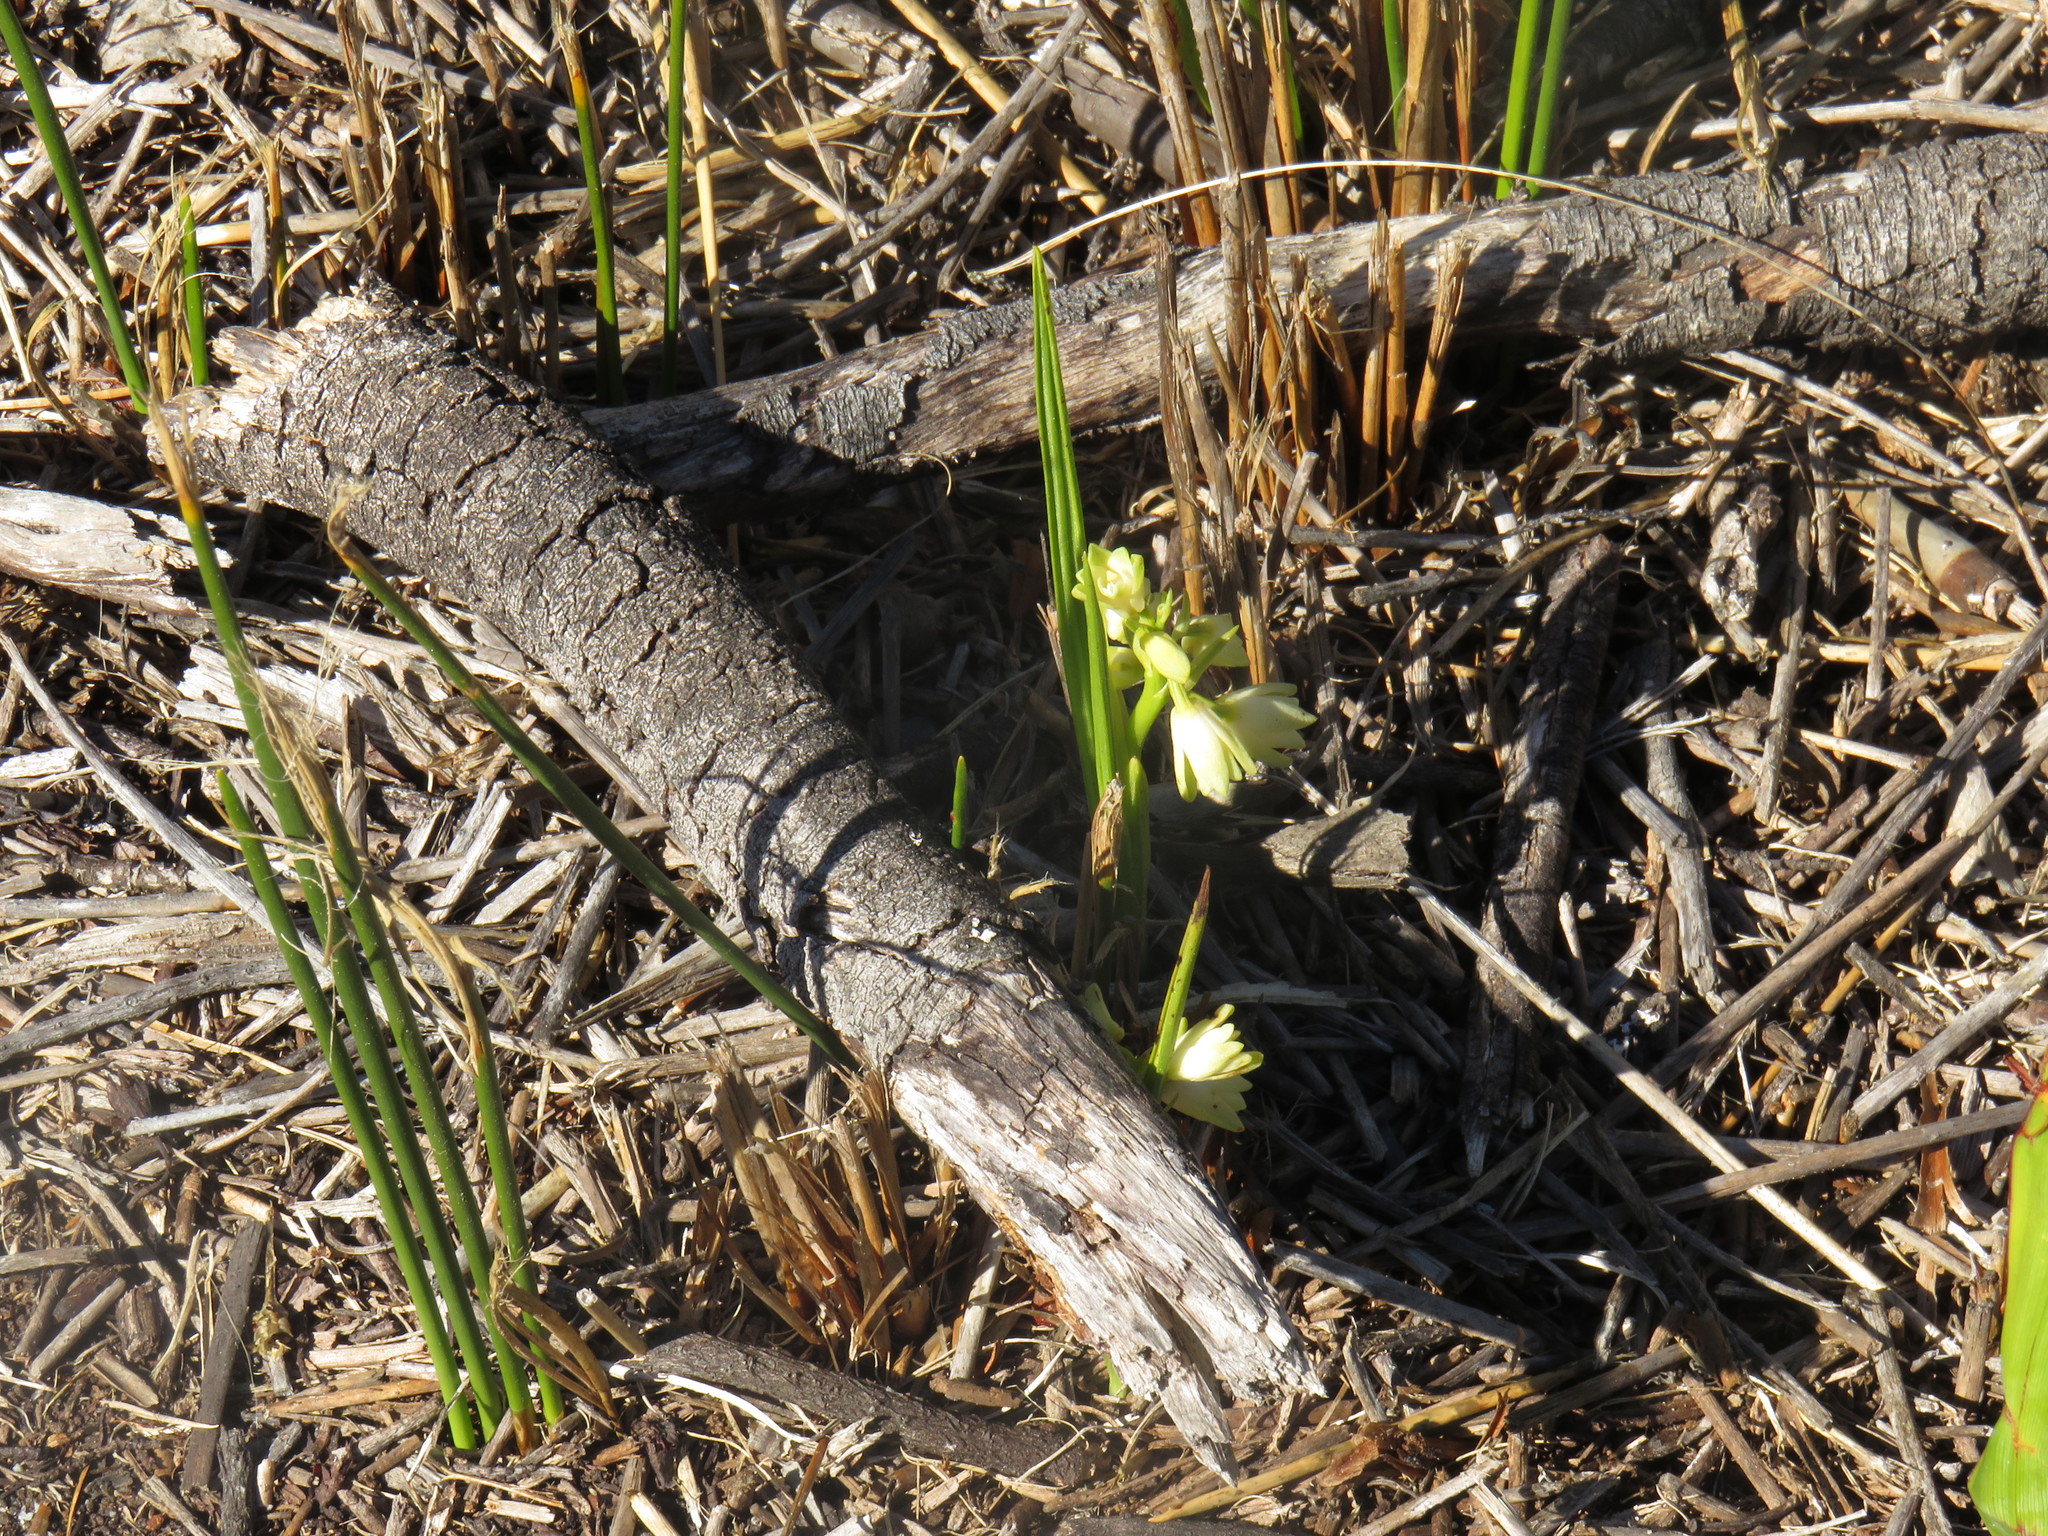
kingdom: Plantae
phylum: Tracheophyta
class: Liliopsida
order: Asparagales
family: Orchidaceae
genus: Eulophia
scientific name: Eulophia aculeata
